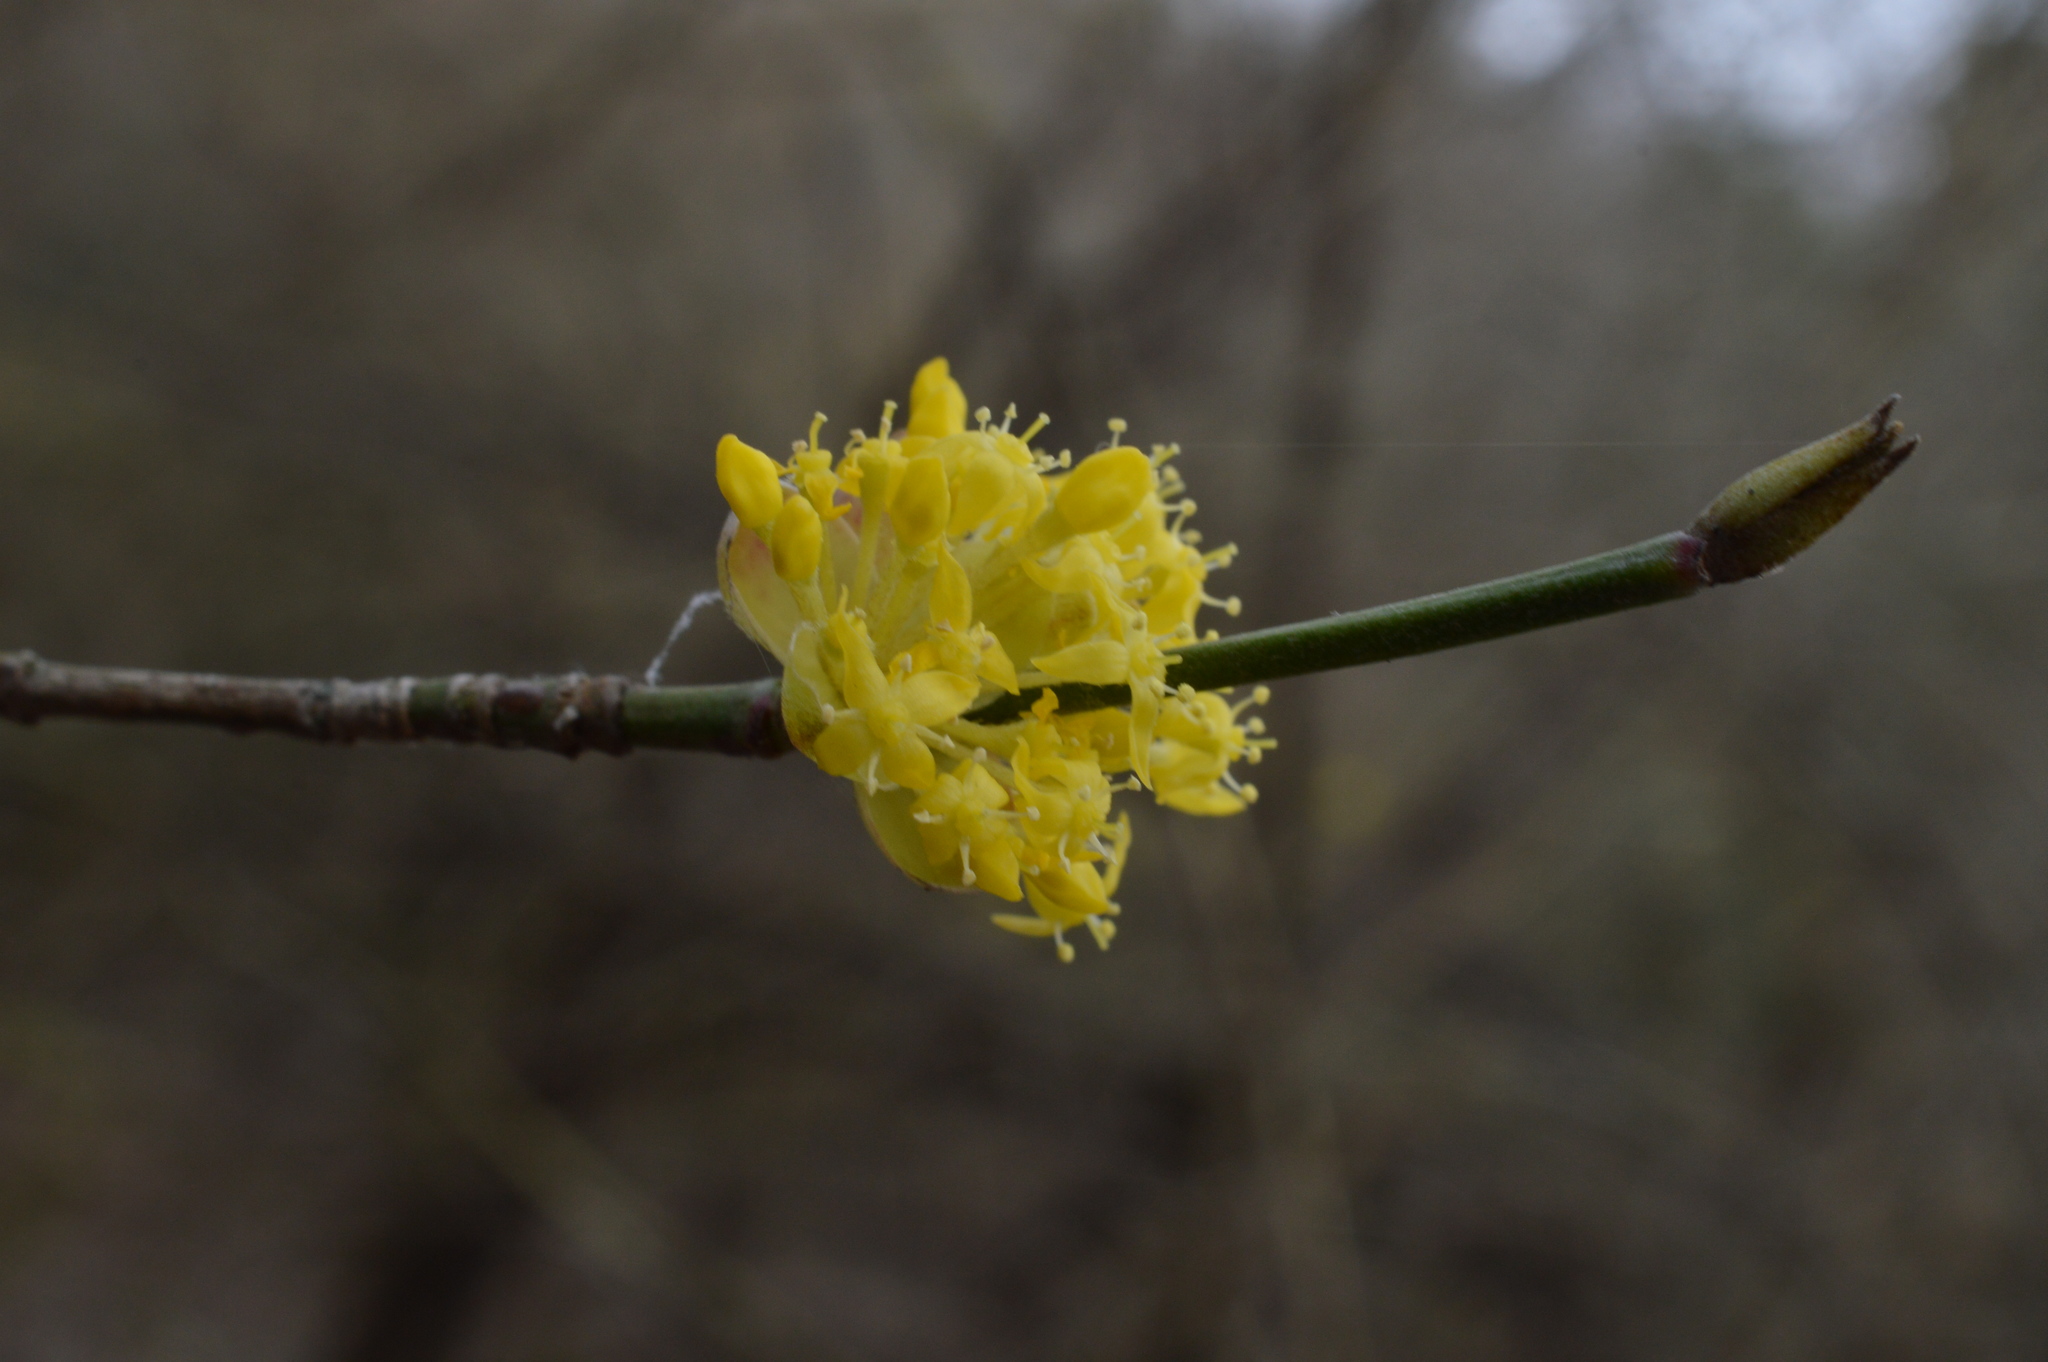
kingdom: Plantae
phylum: Tracheophyta
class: Magnoliopsida
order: Cornales
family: Cornaceae
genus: Cornus
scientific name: Cornus mas
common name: Cornelian-cherry
